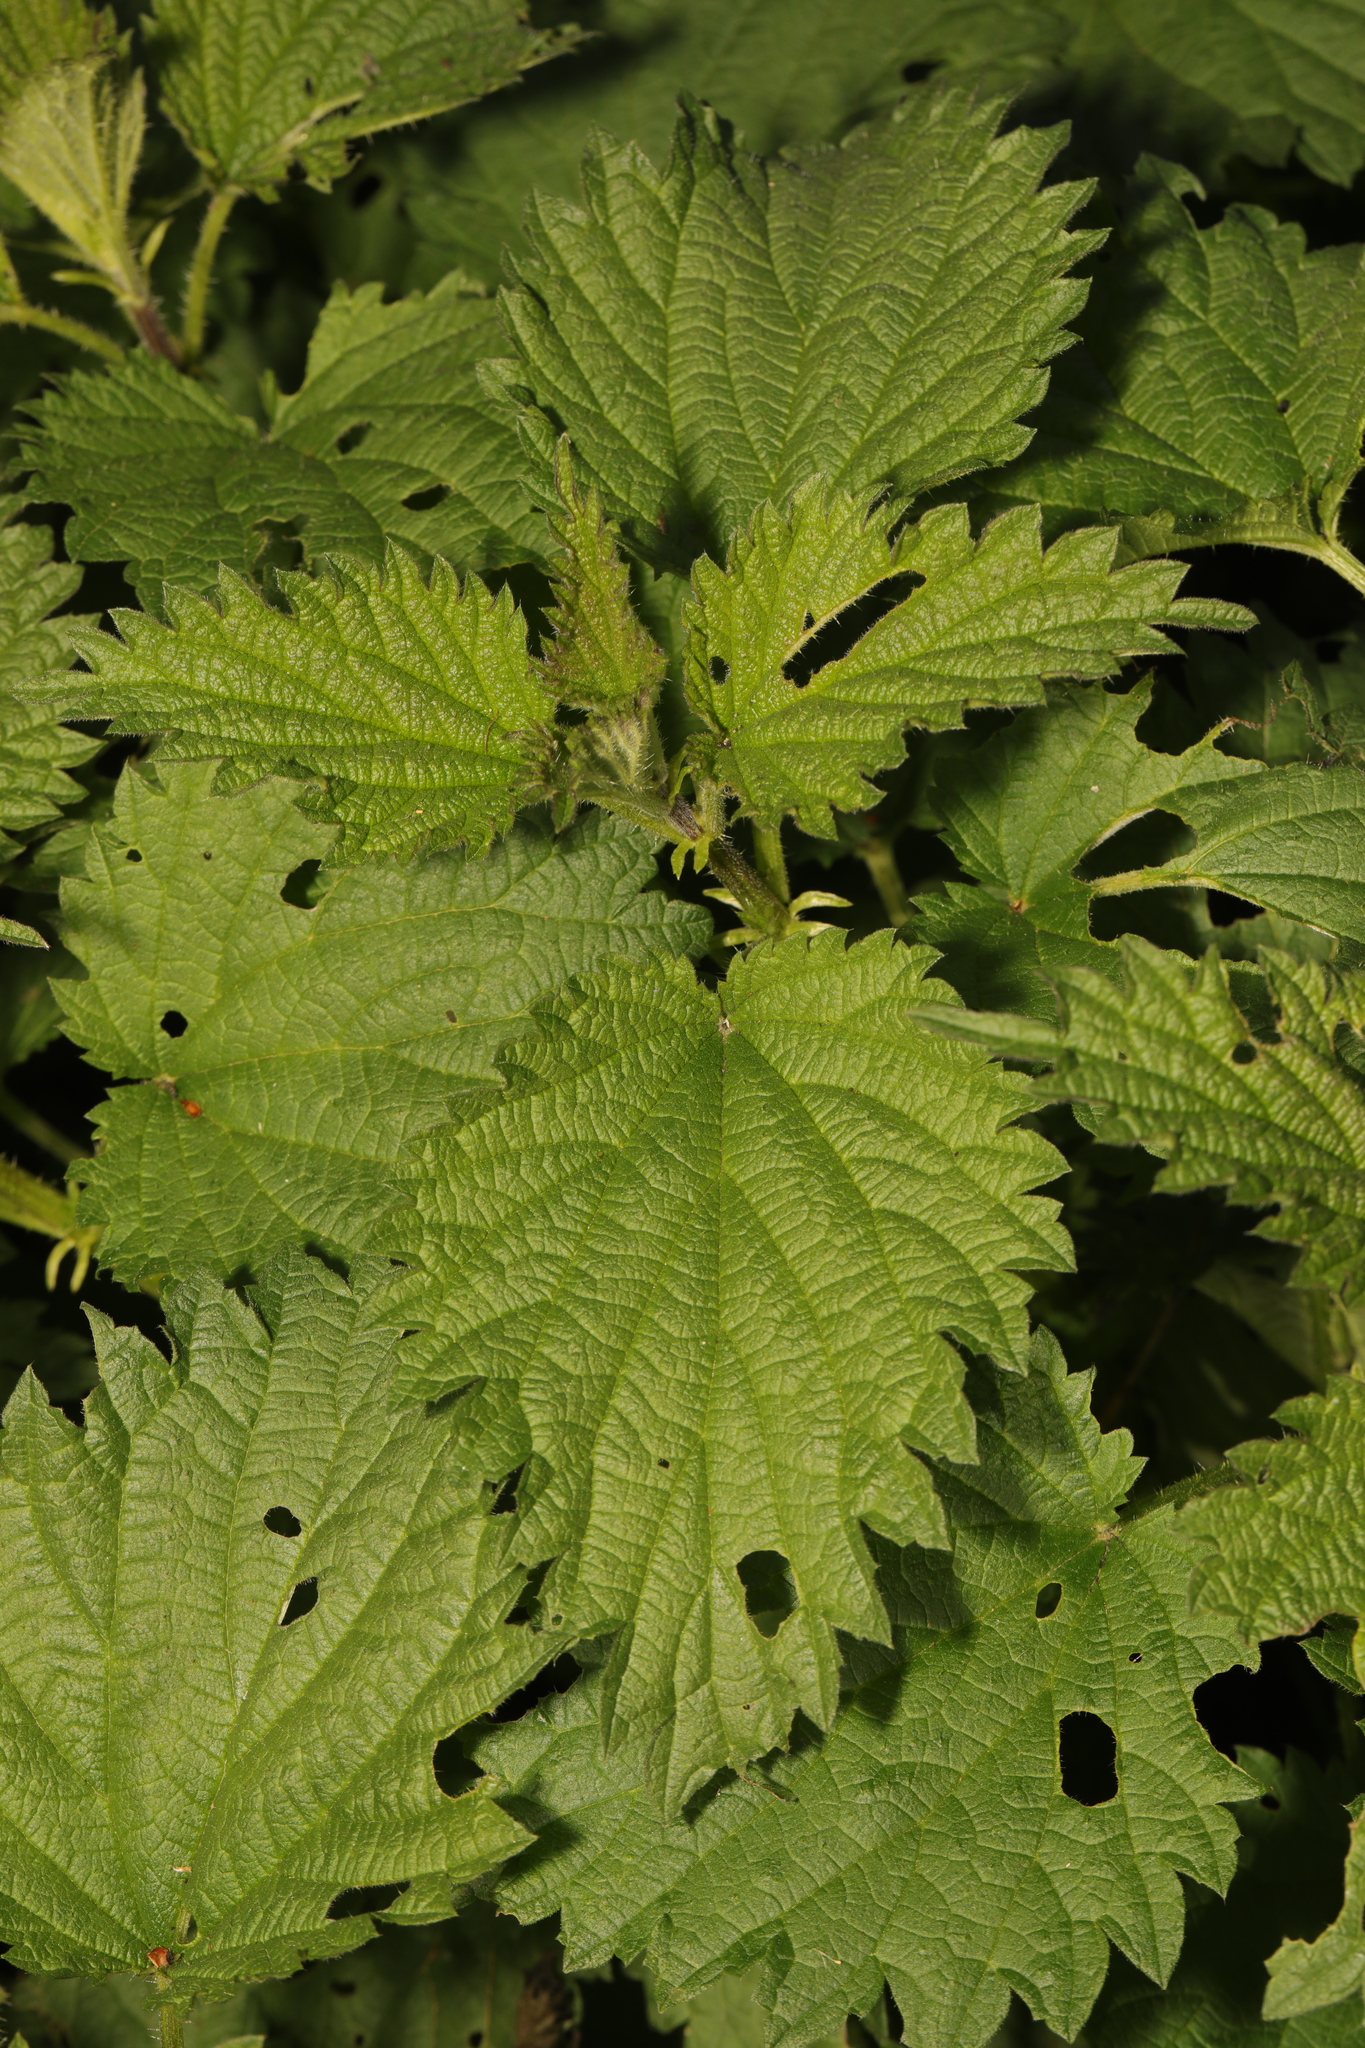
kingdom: Plantae
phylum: Tracheophyta
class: Magnoliopsida
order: Rosales
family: Urticaceae
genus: Urtica
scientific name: Urtica dioica
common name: Common nettle
